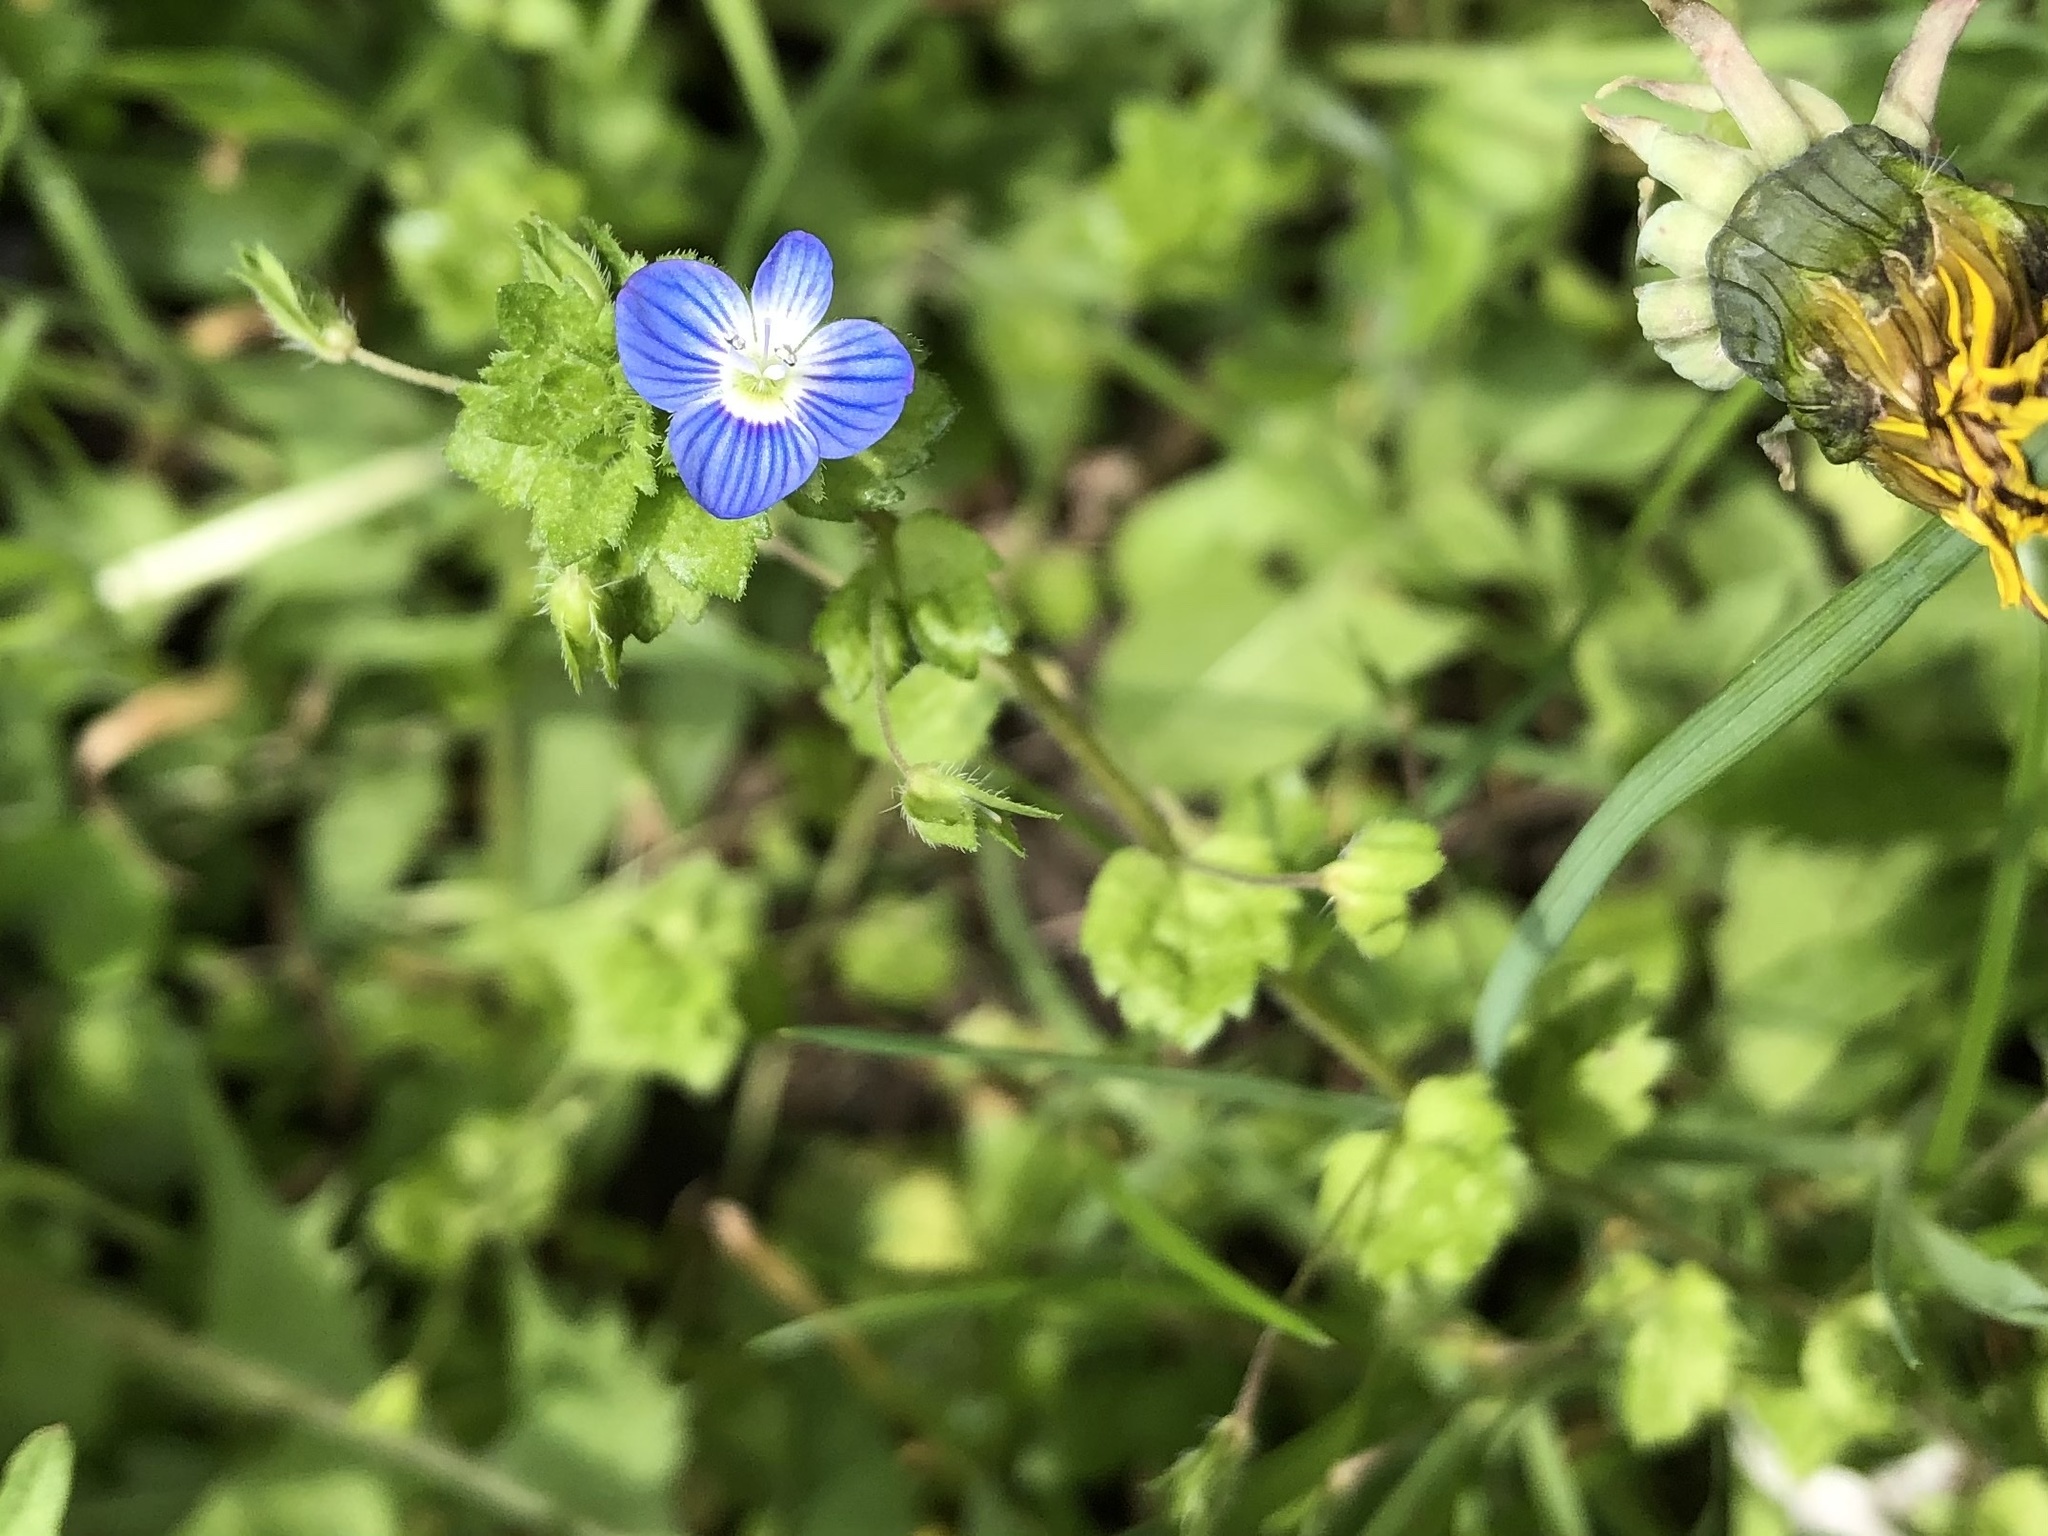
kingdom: Plantae
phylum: Tracheophyta
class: Magnoliopsida
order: Lamiales
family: Plantaginaceae
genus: Veronica
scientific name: Veronica persica
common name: Common field-speedwell
